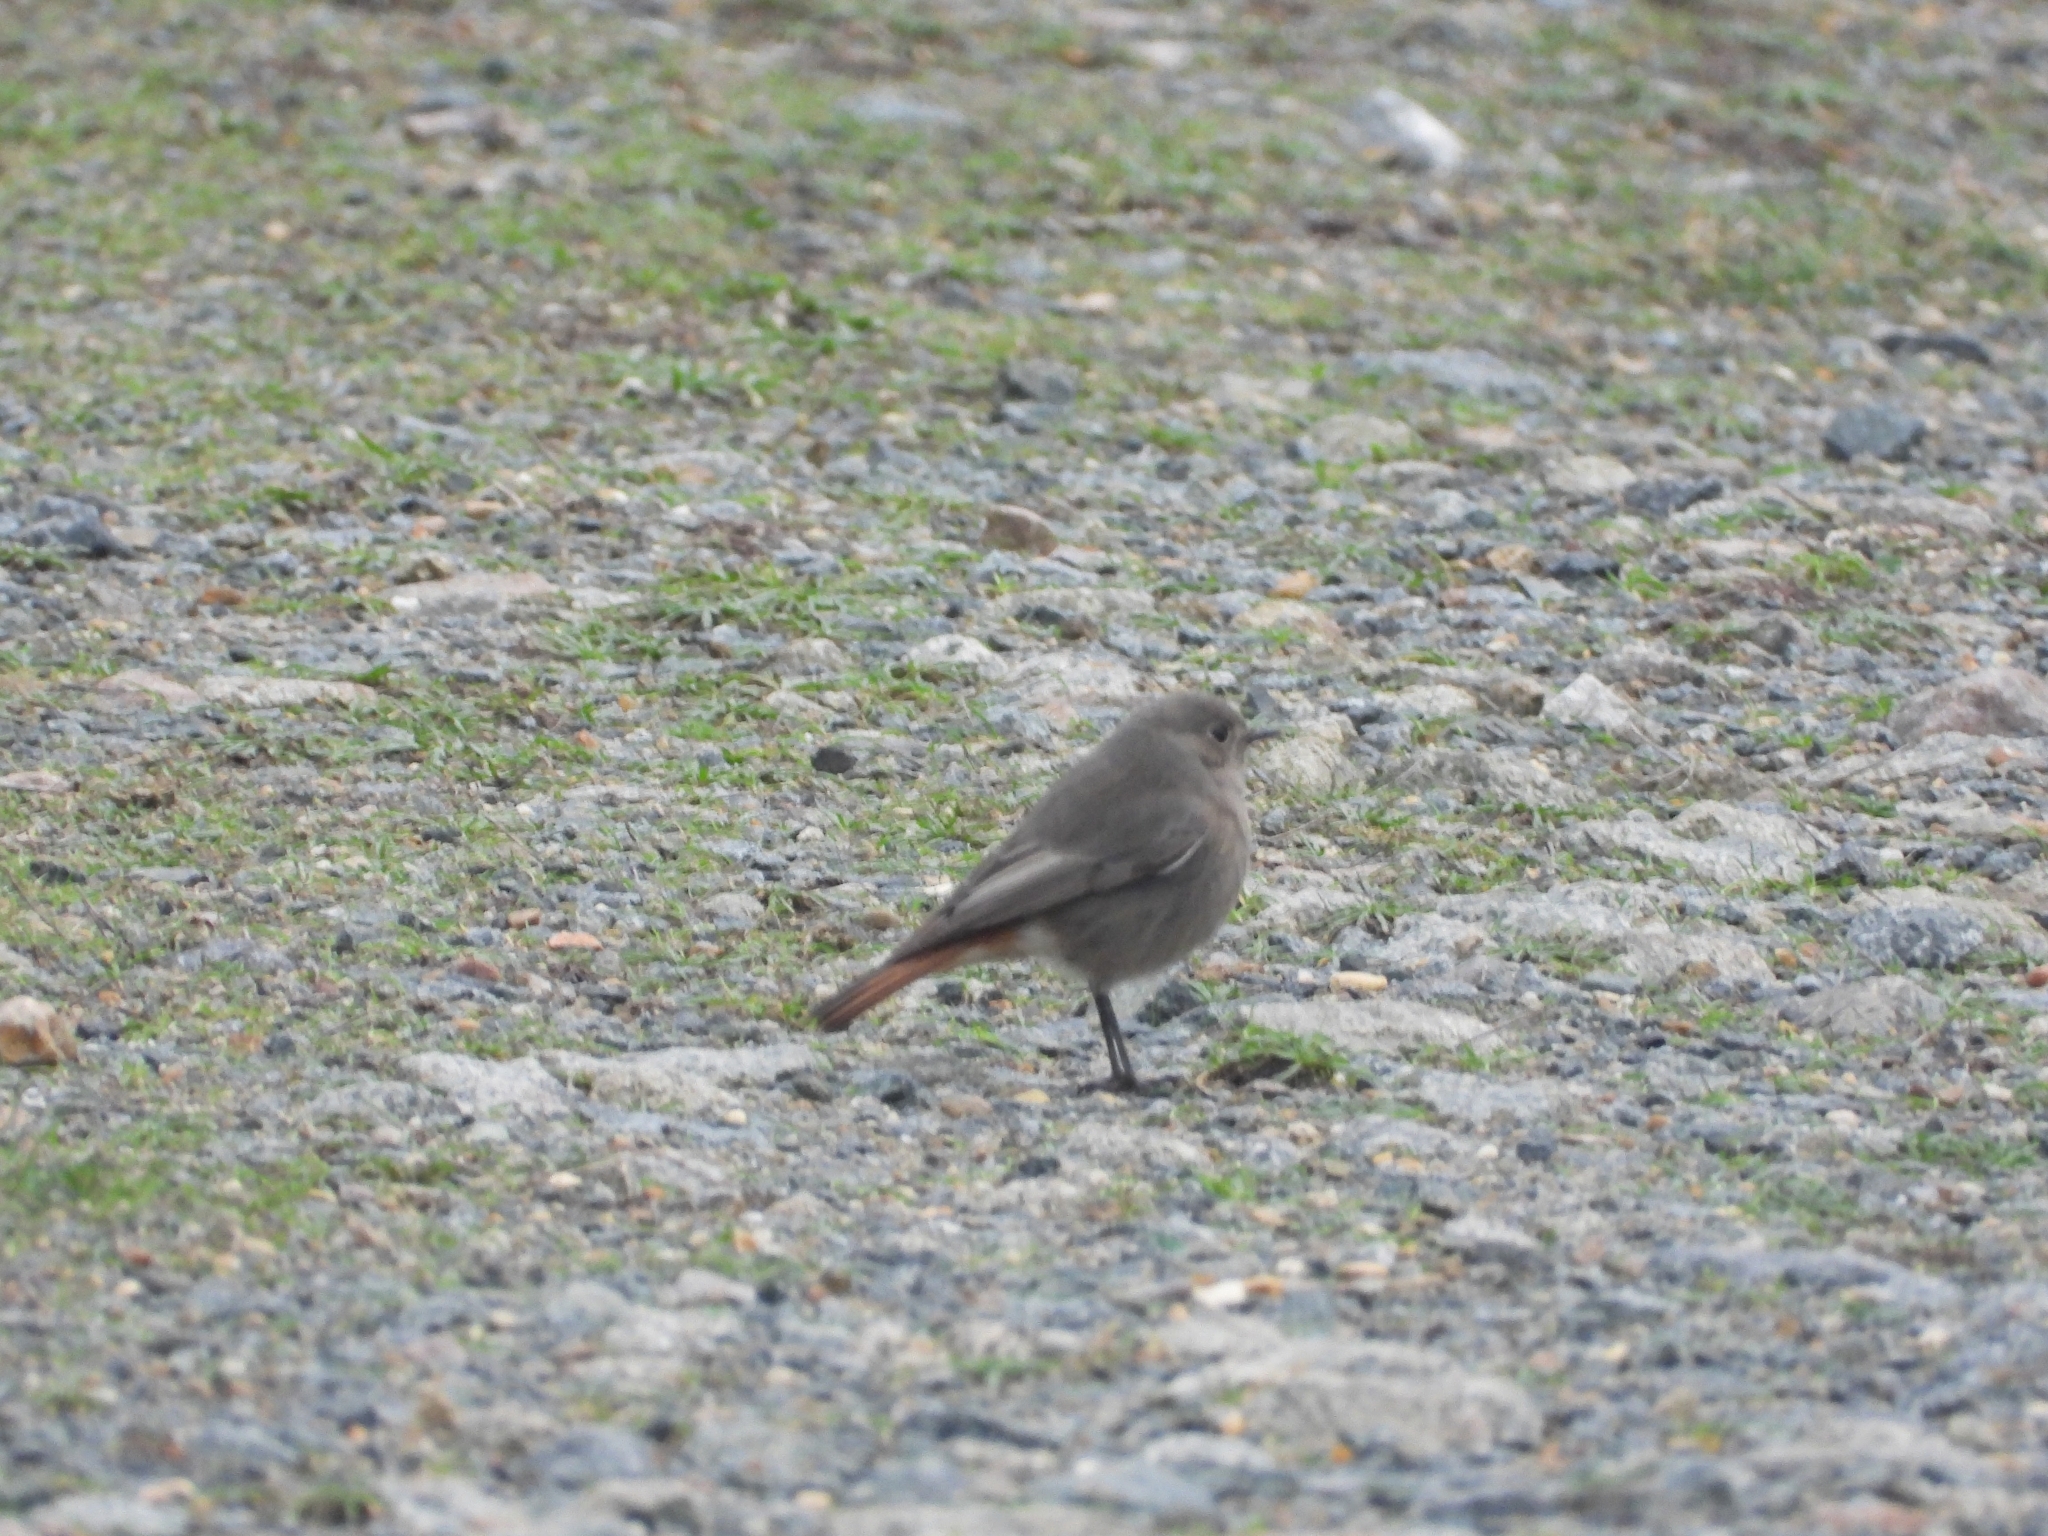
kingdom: Animalia
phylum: Chordata
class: Aves
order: Passeriformes
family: Muscicapidae
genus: Phoenicurus
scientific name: Phoenicurus ochruros
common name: Black redstart
